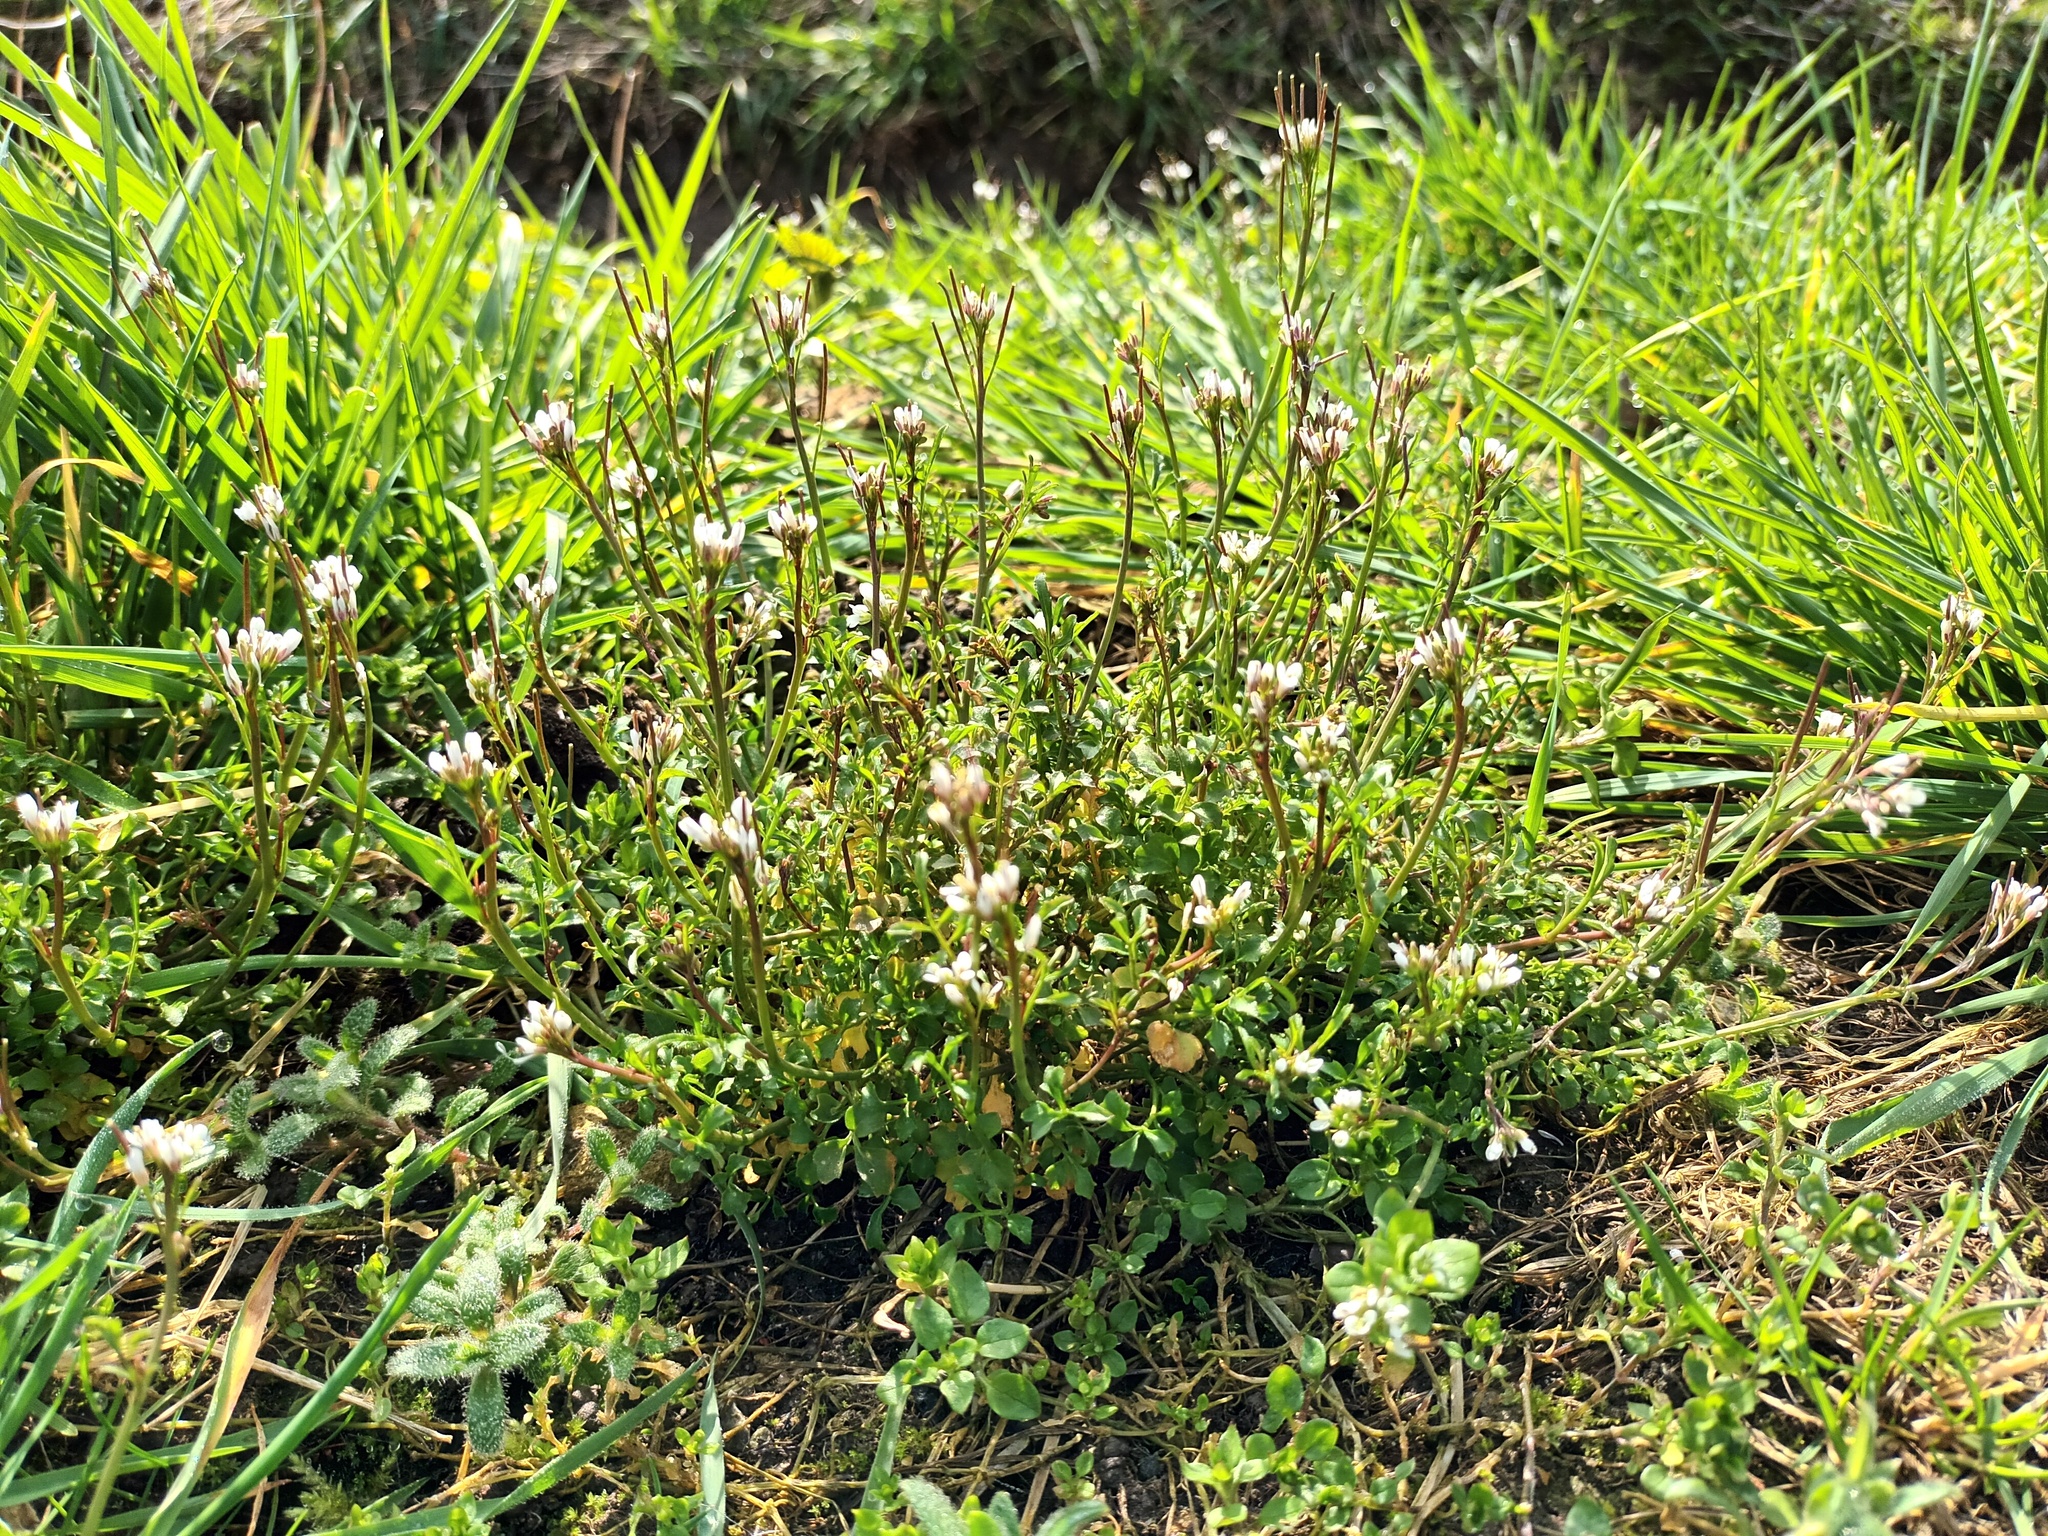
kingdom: Plantae
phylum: Tracheophyta
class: Magnoliopsida
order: Brassicales
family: Brassicaceae
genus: Cardamine
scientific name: Cardamine hirsuta
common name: Hairy bittercress
